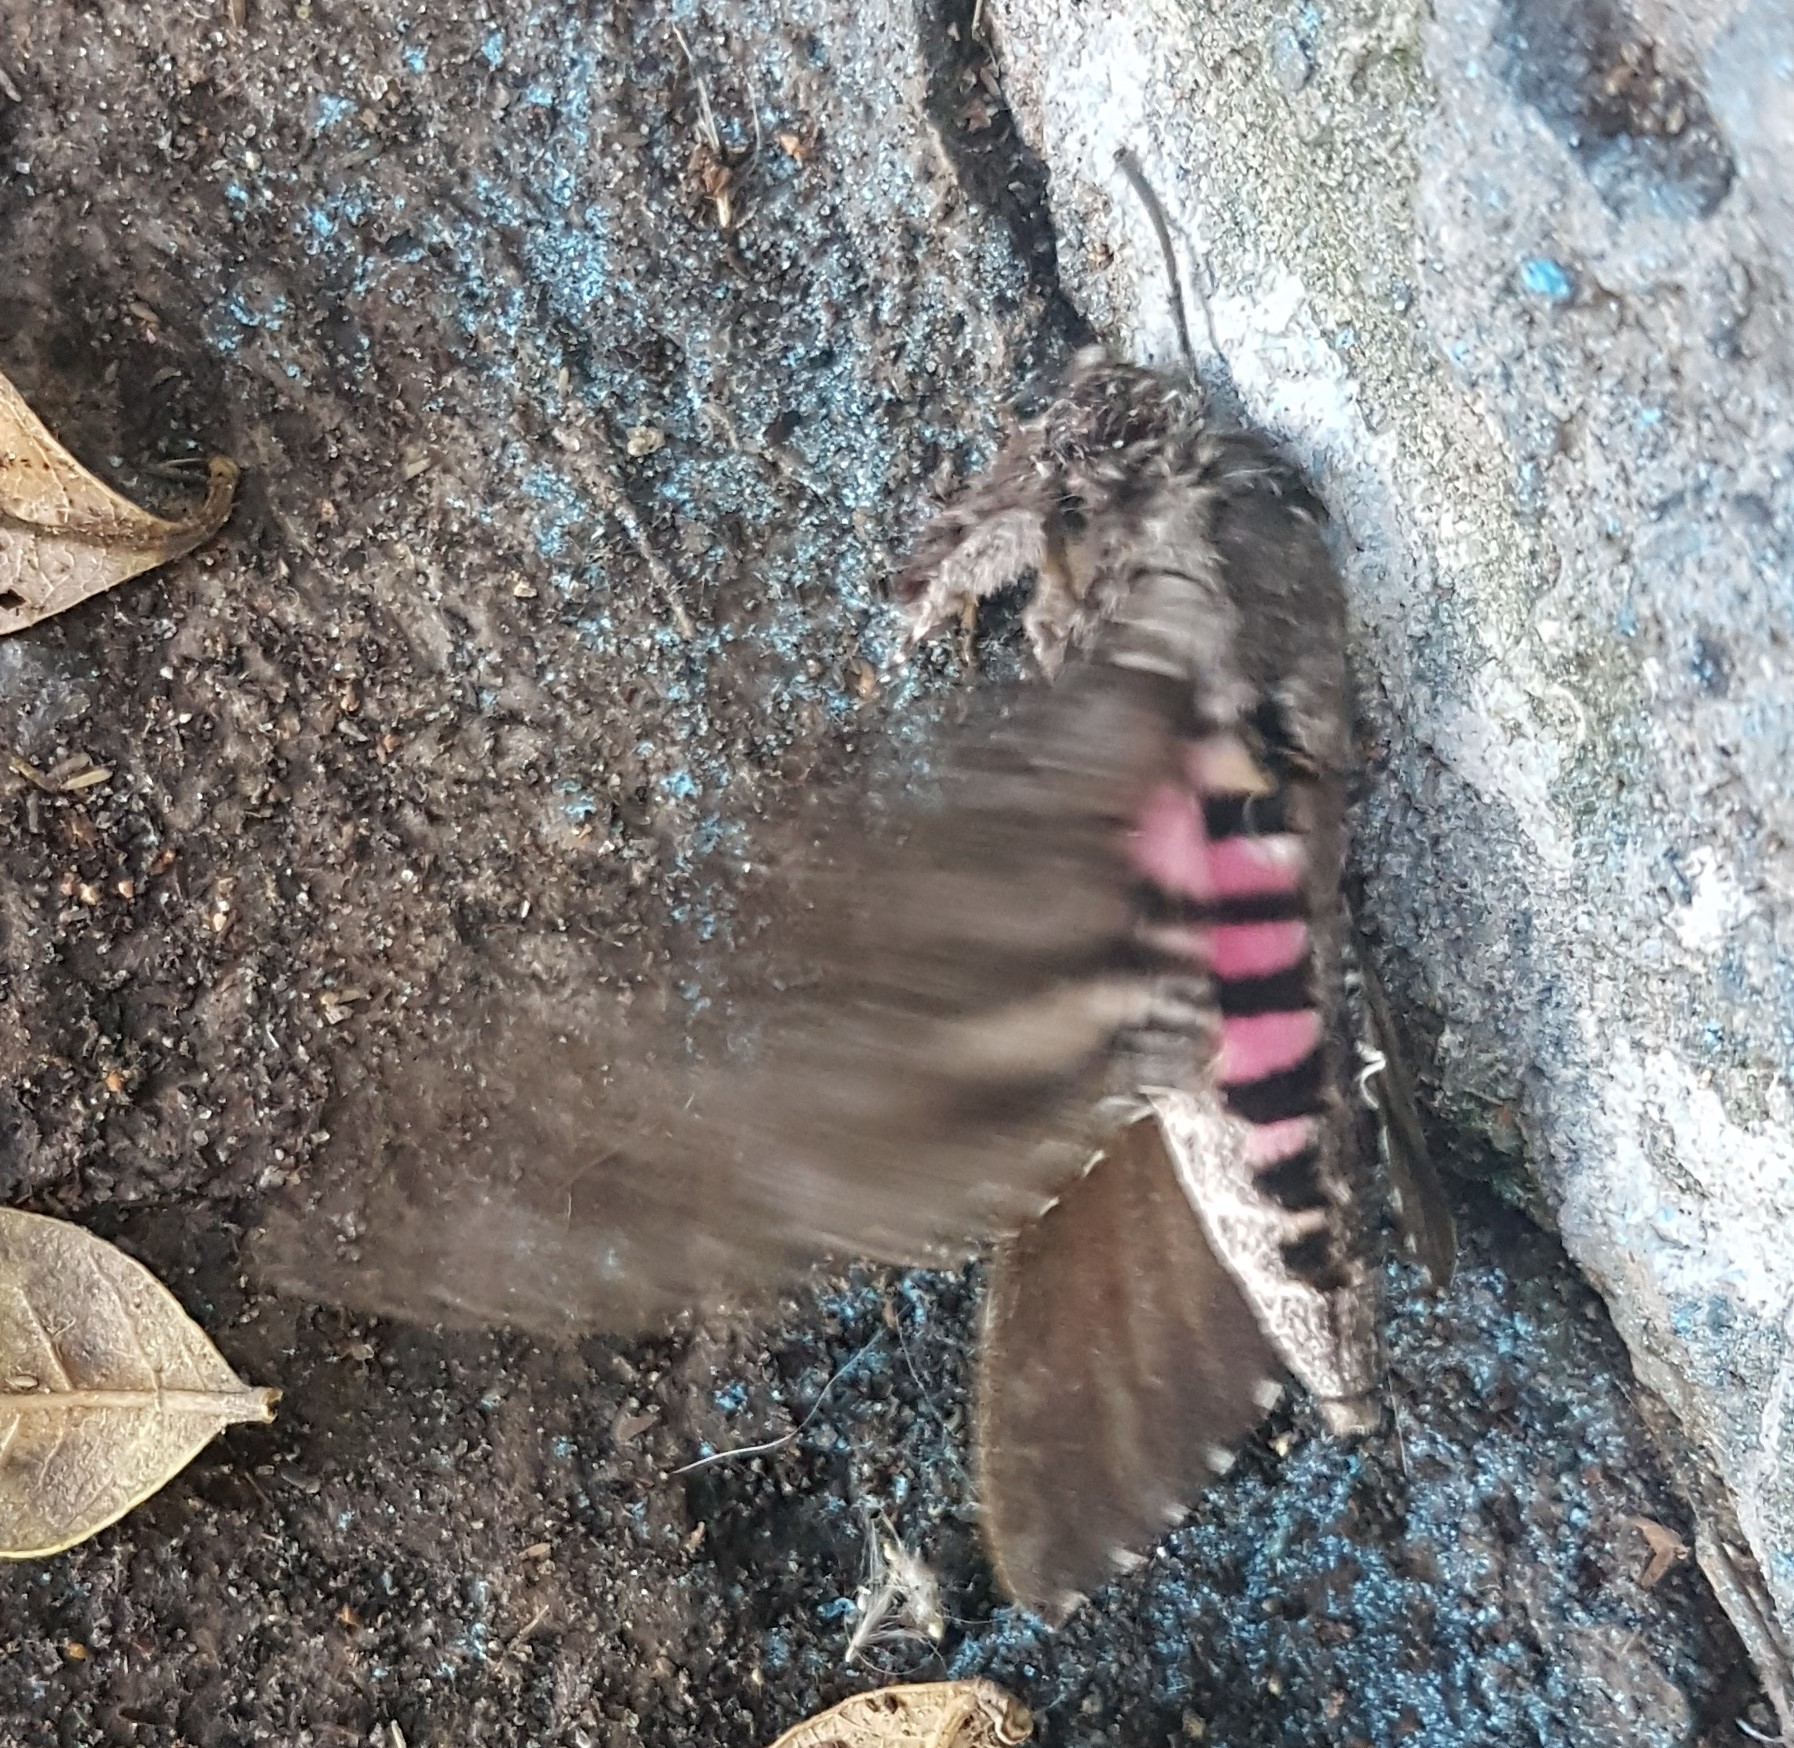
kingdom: Animalia
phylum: Arthropoda
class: Insecta
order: Lepidoptera
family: Sphingidae
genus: Agrius
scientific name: Agrius cingulata
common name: Pink-spotted hawkmoth
